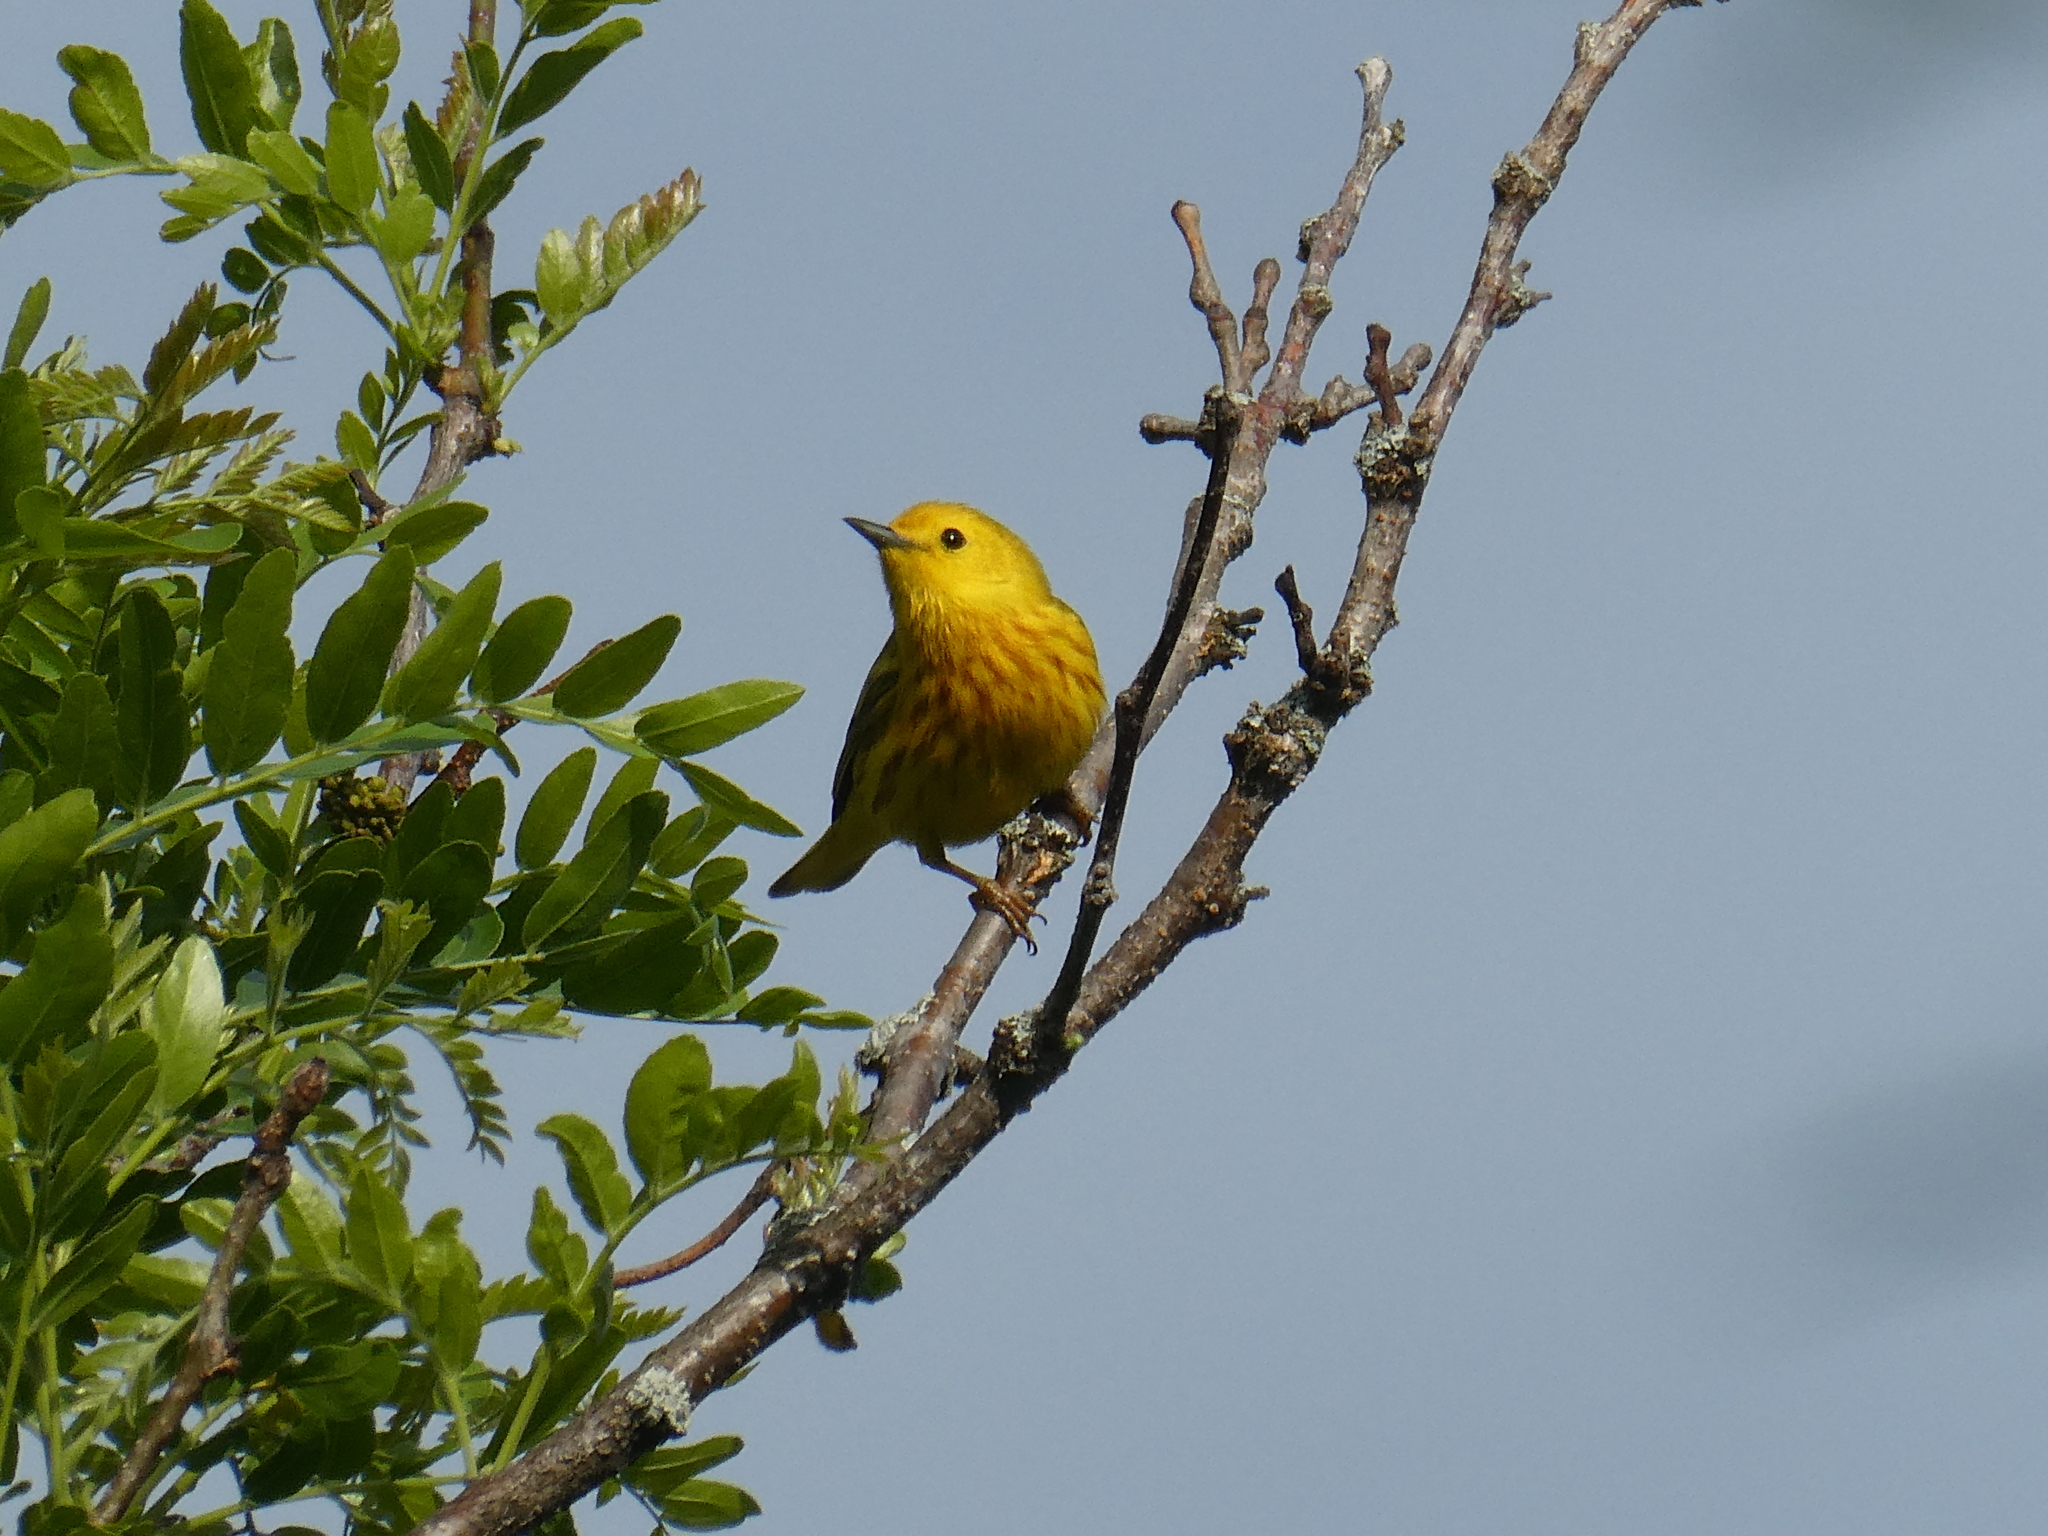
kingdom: Animalia
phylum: Chordata
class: Aves
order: Passeriformes
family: Parulidae
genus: Setophaga
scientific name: Setophaga petechia
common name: Yellow warbler
